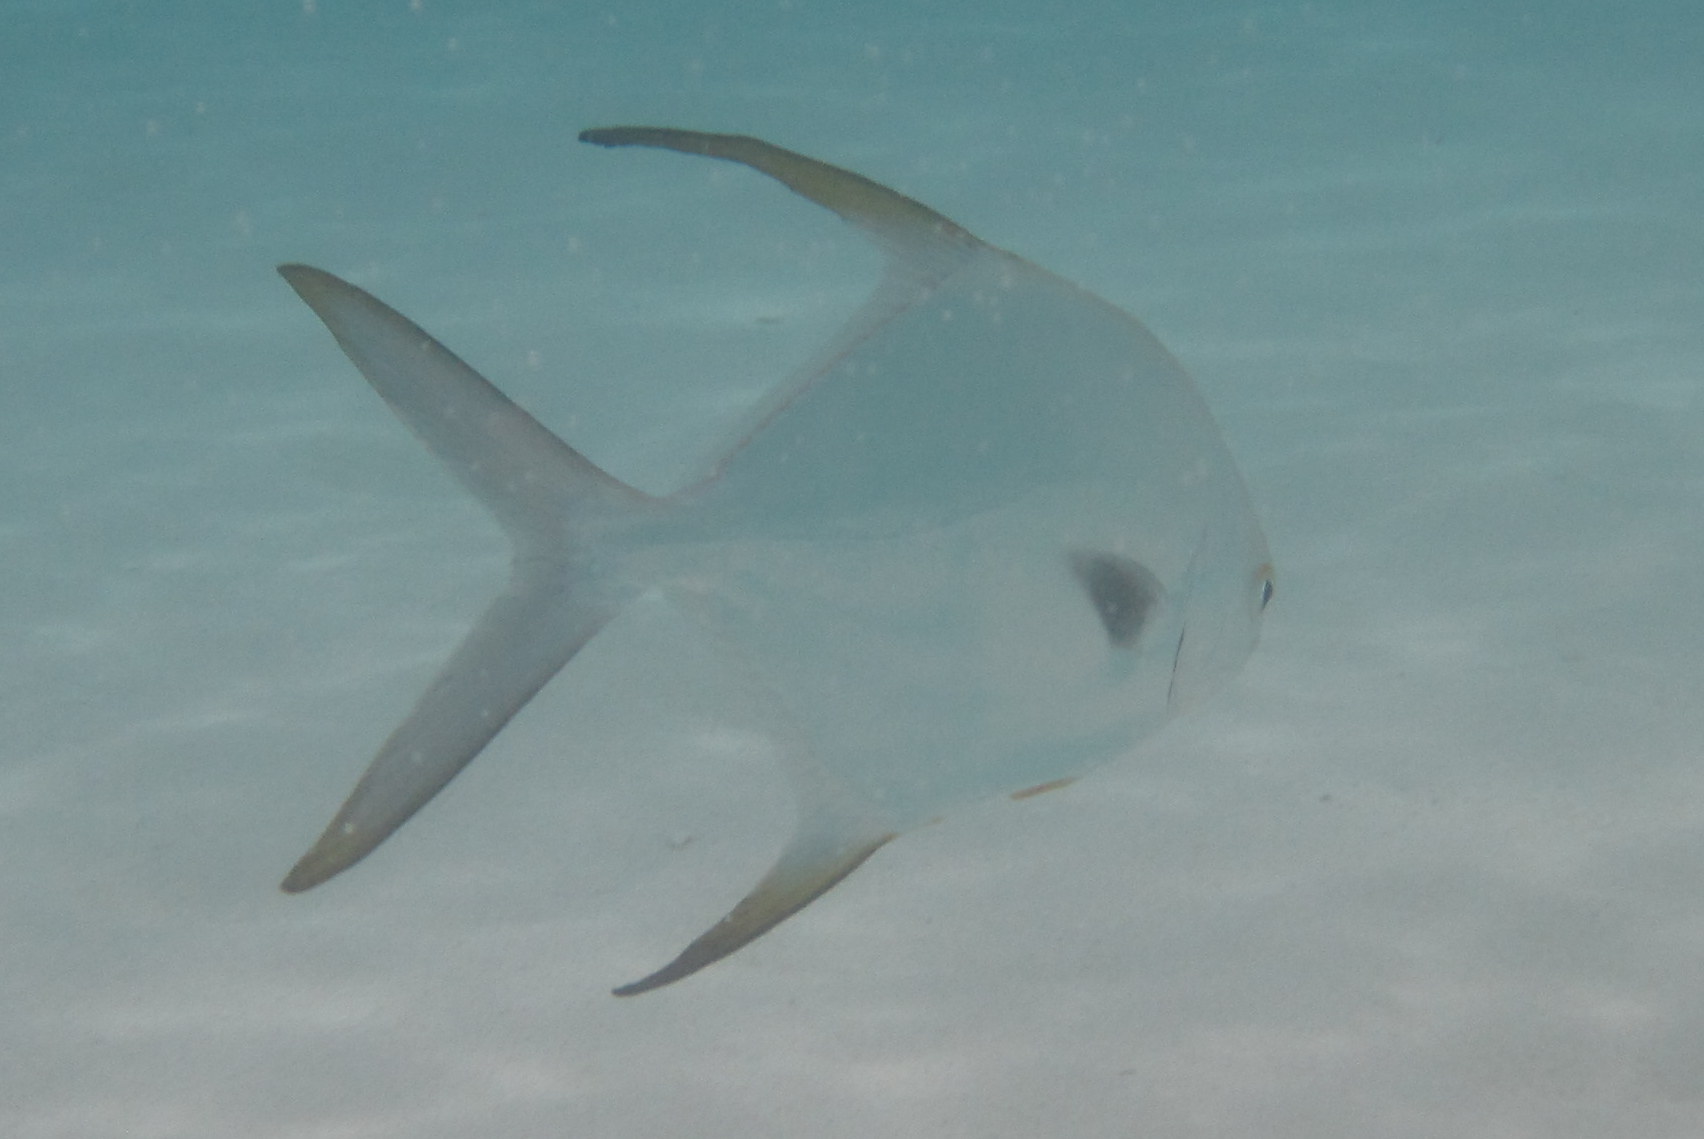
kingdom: Animalia
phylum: Chordata
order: Perciformes
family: Carangidae
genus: Trachinotus
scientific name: Trachinotus blochii
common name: Snubnose pompano
